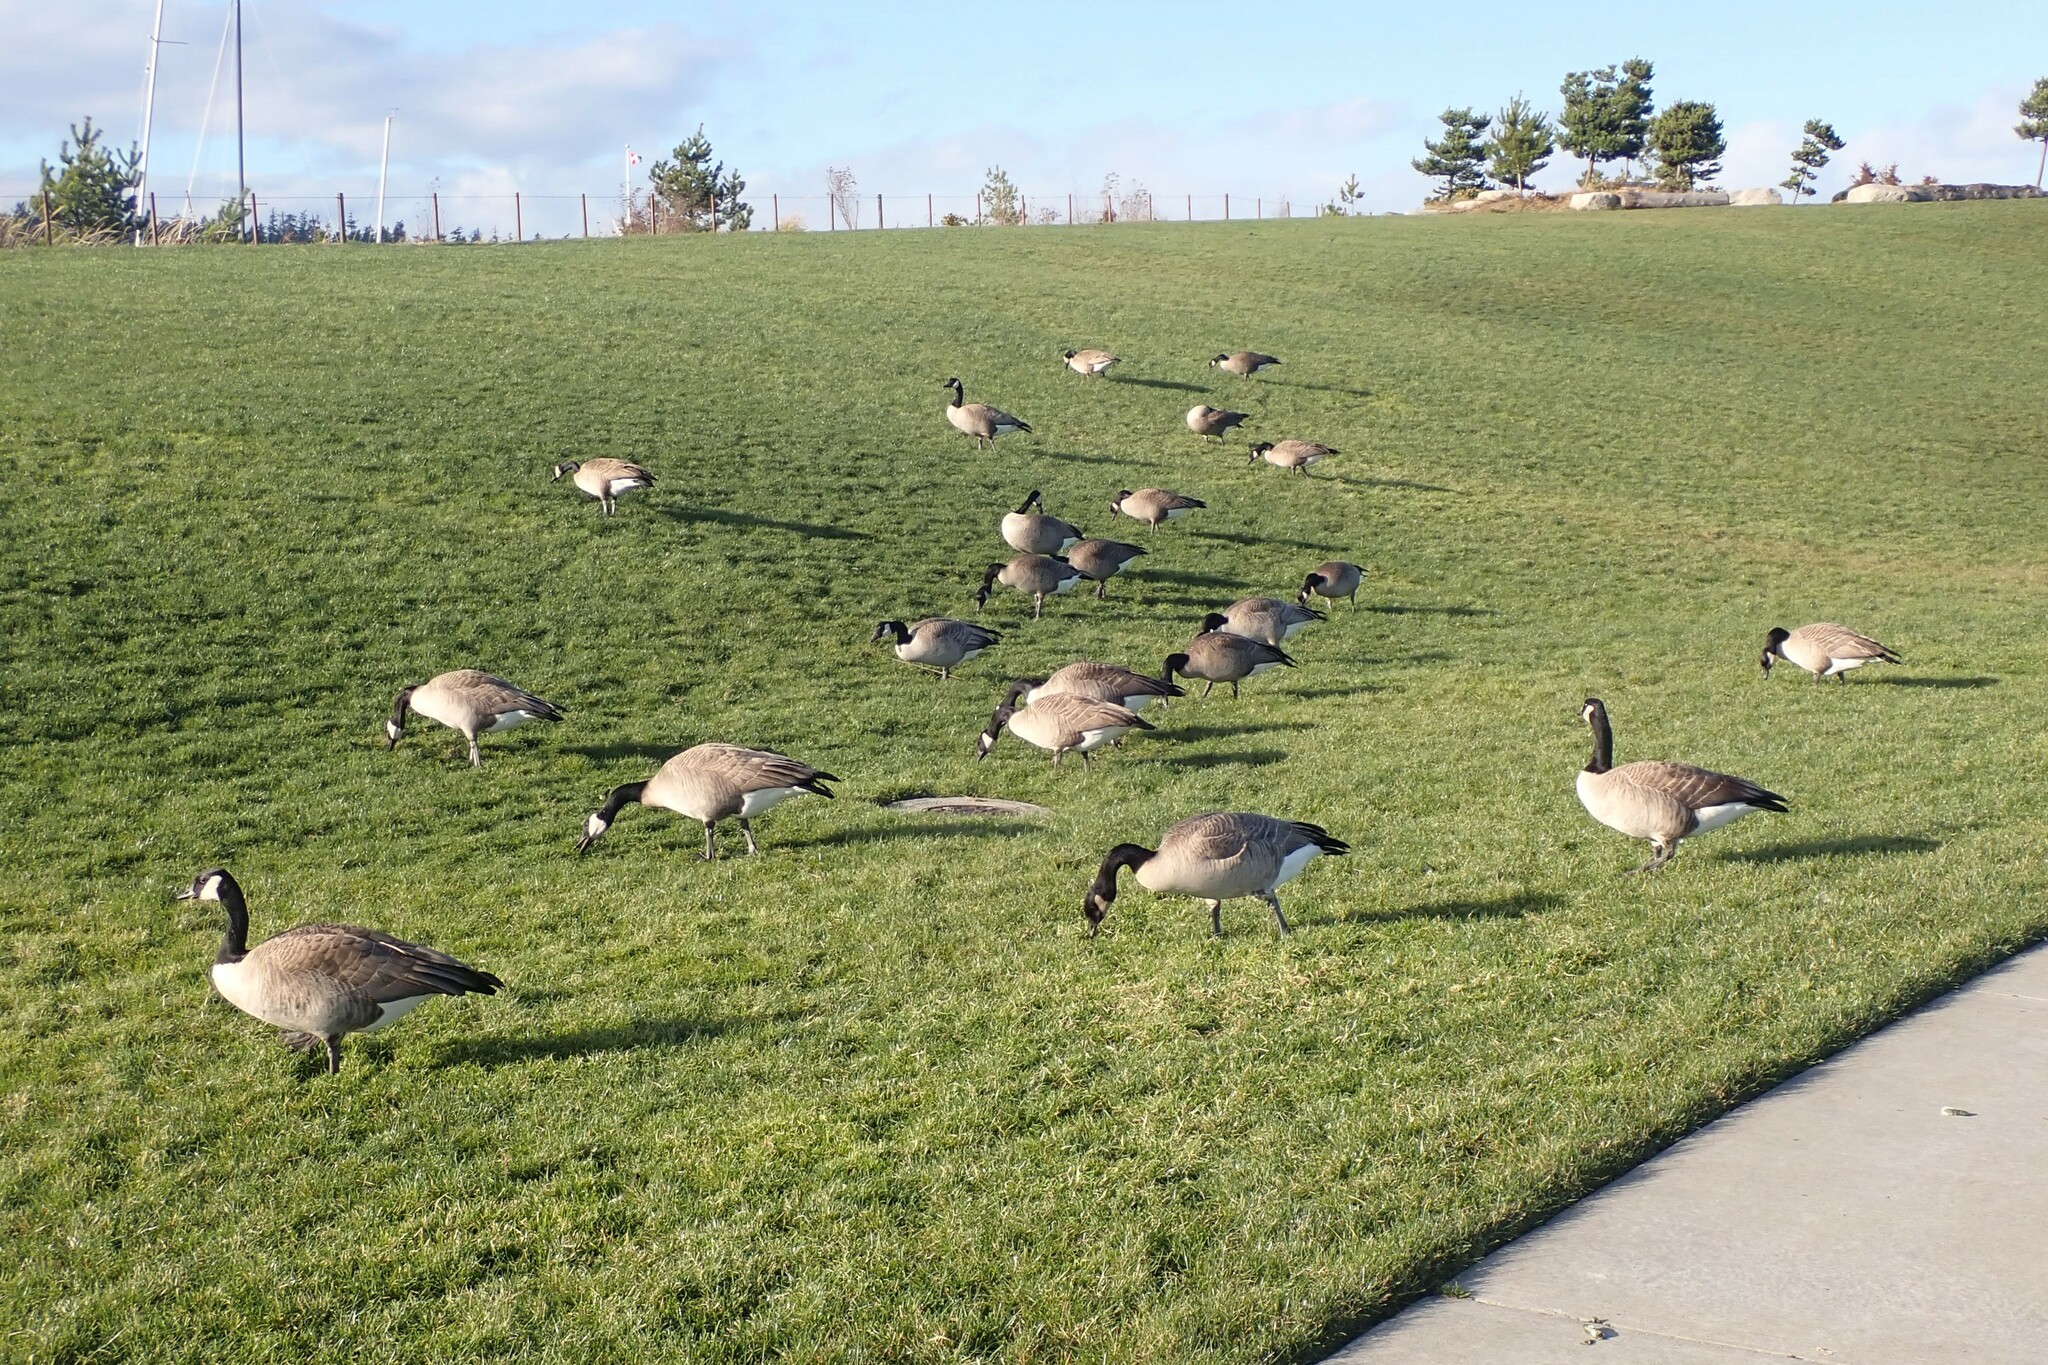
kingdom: Animalia
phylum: Chordata
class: Aves
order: Anseriformes
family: Anatidae
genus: Branta
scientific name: Branta canadensis
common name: Canada goose
